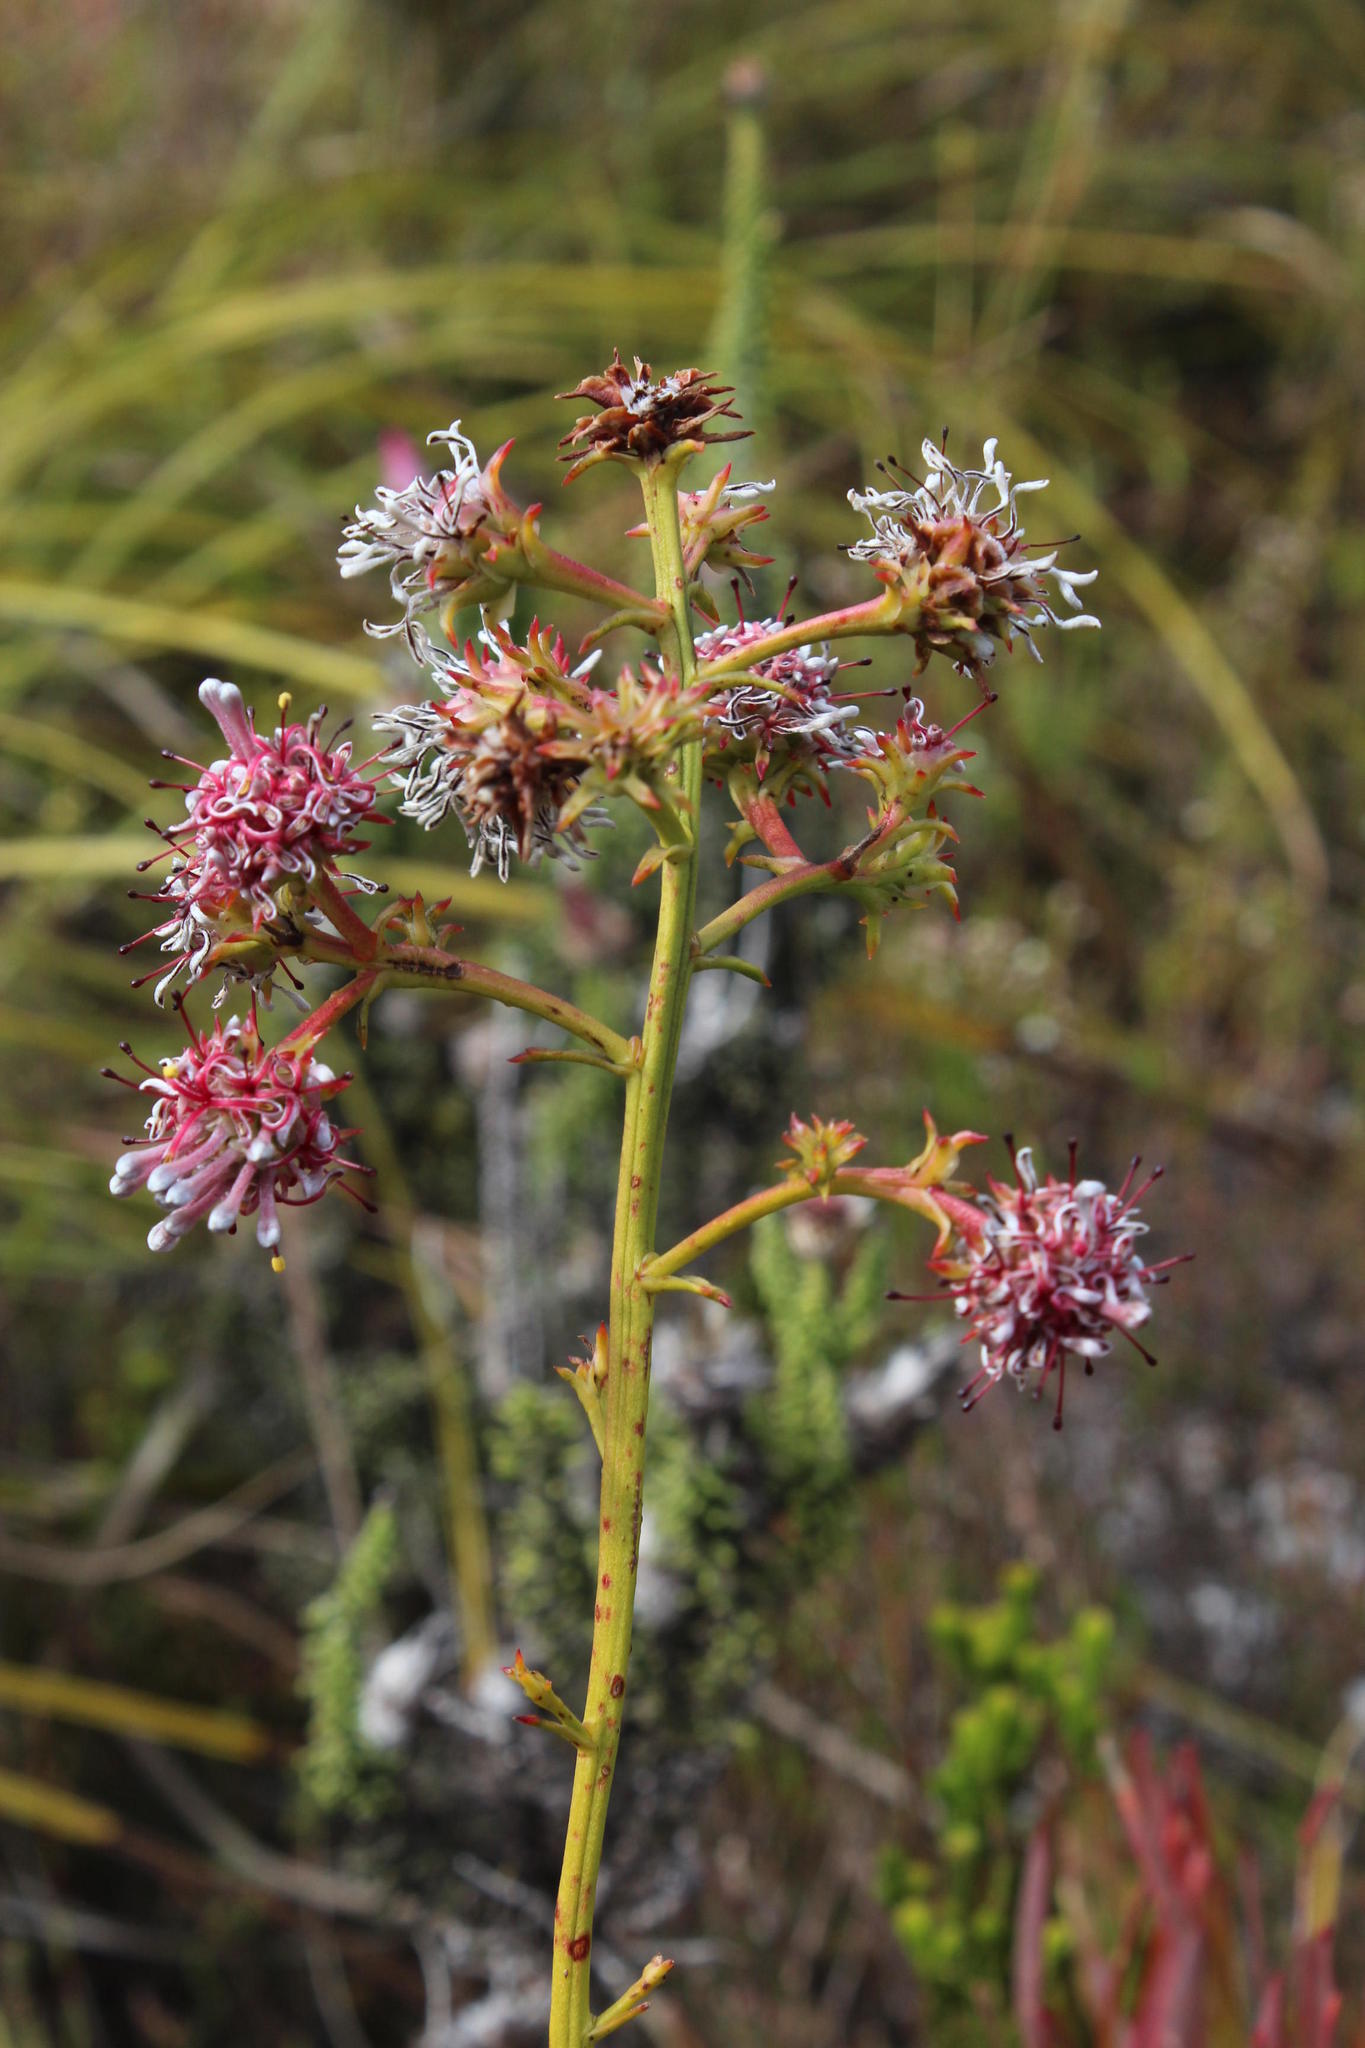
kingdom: Plantae
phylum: Tracheophyta
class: Magnoliopsida
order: Proteales
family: Proteaceae
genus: Serruria
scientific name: Serruria elongata
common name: Long-stalk spiderhead
